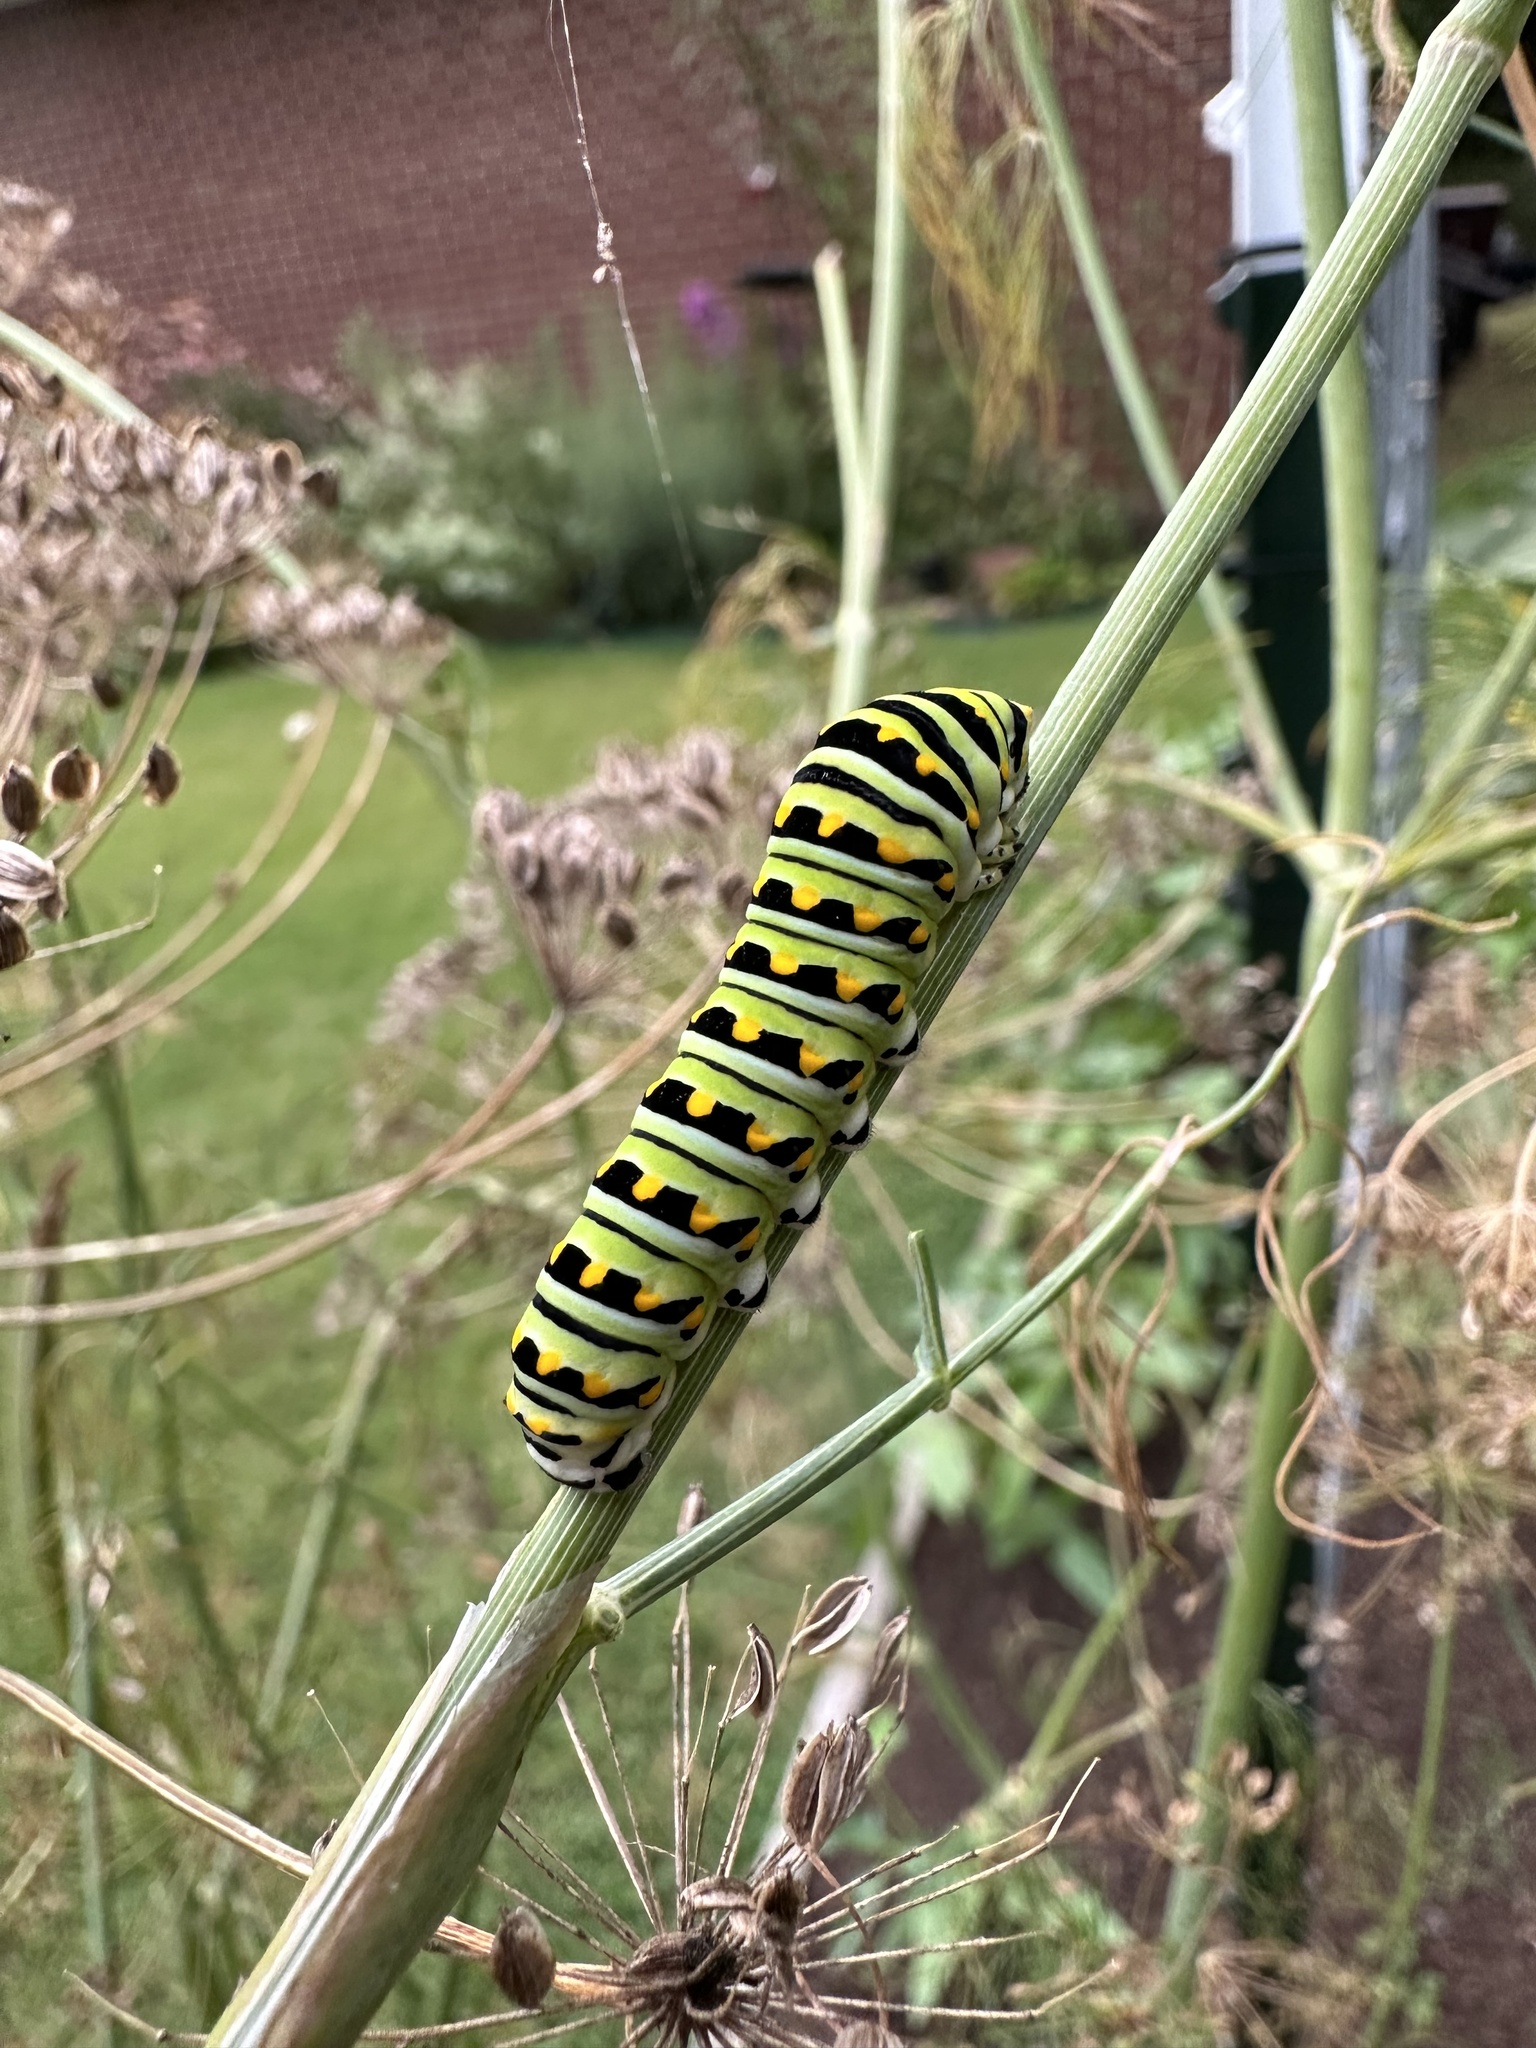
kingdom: Animalia
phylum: Arthropoda
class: Insecta
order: Lepidoptera
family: Papilionidae
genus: Papilio
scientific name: Papilio polyxenes
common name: Black swallowtail
